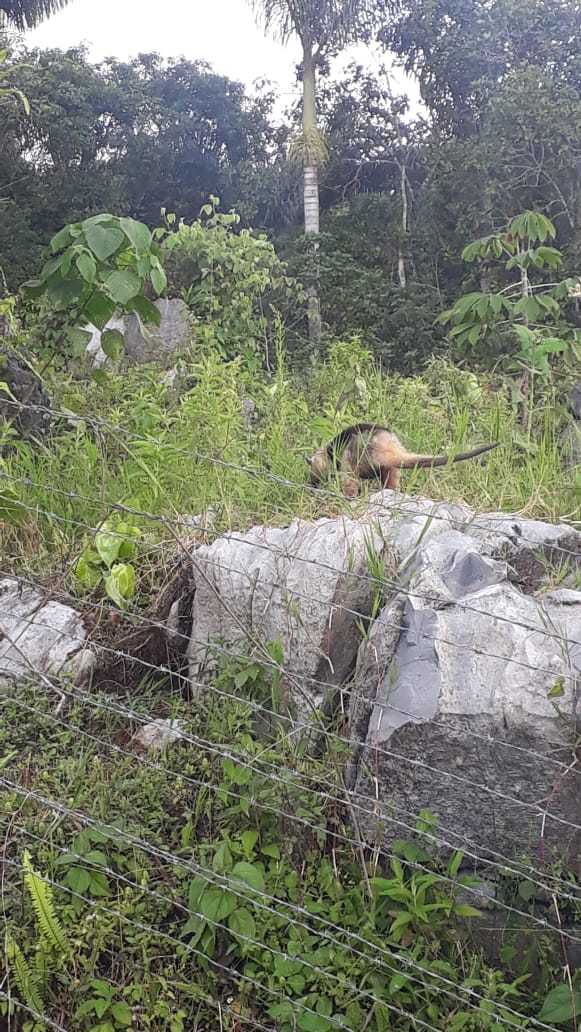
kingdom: Animalia
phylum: Chordata
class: Mammalia
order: Pilosa
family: Myrmecophagidae
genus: Tamandua
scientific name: Tamandua mexicana
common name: Northern tamandua
